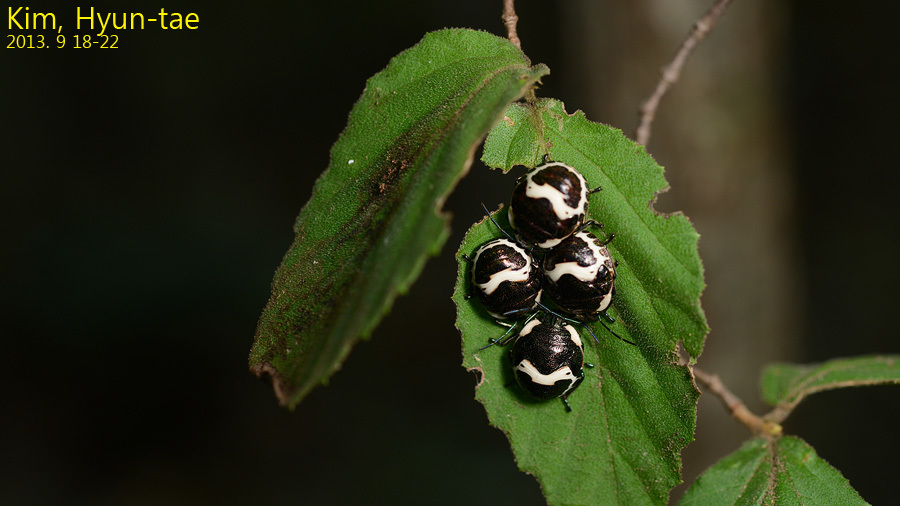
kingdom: Animalia
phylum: Arthropoda
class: Insecta
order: Hemiptera
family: Scutelleridae
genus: Poecilocoris
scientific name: Poecilocoris lewisi
